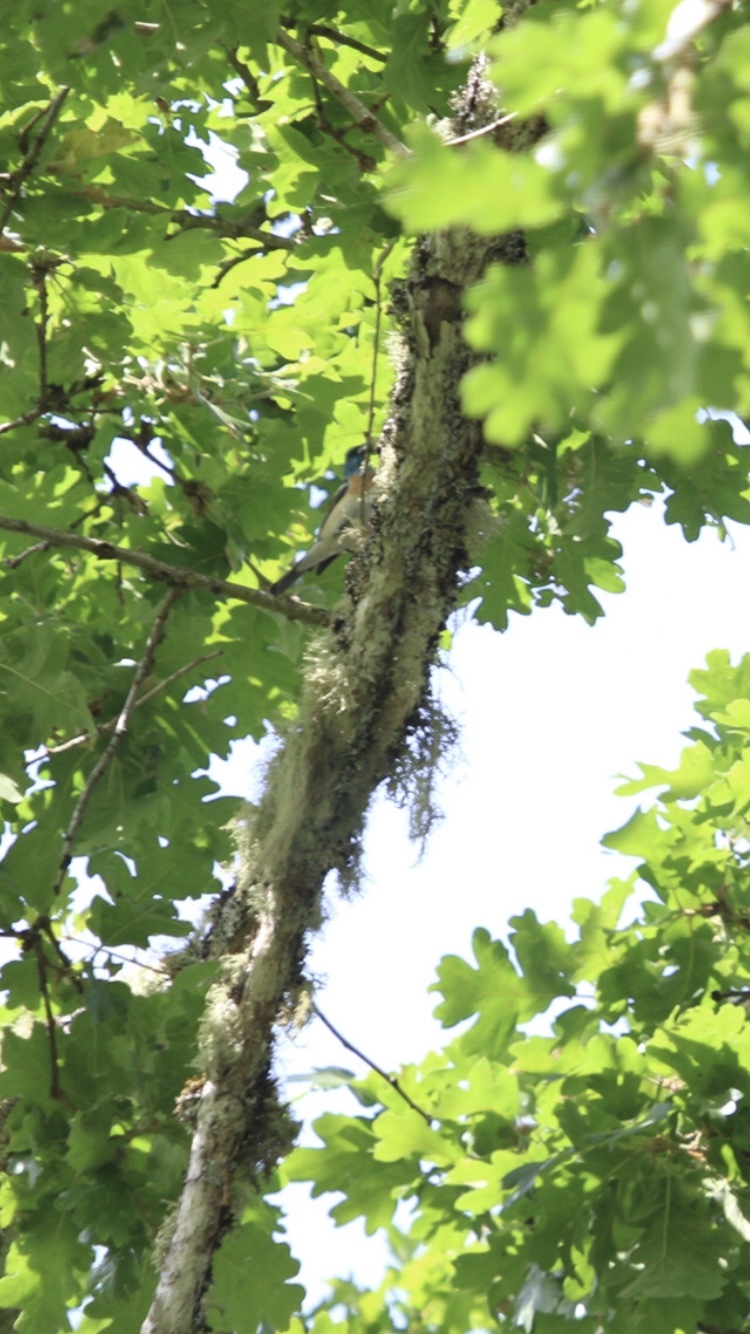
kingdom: Animalia
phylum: Chordata
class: Aves
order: Passeriformes
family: Cardinalidae
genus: Passerina
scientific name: Passerina amoena
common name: Lazuli bunting
